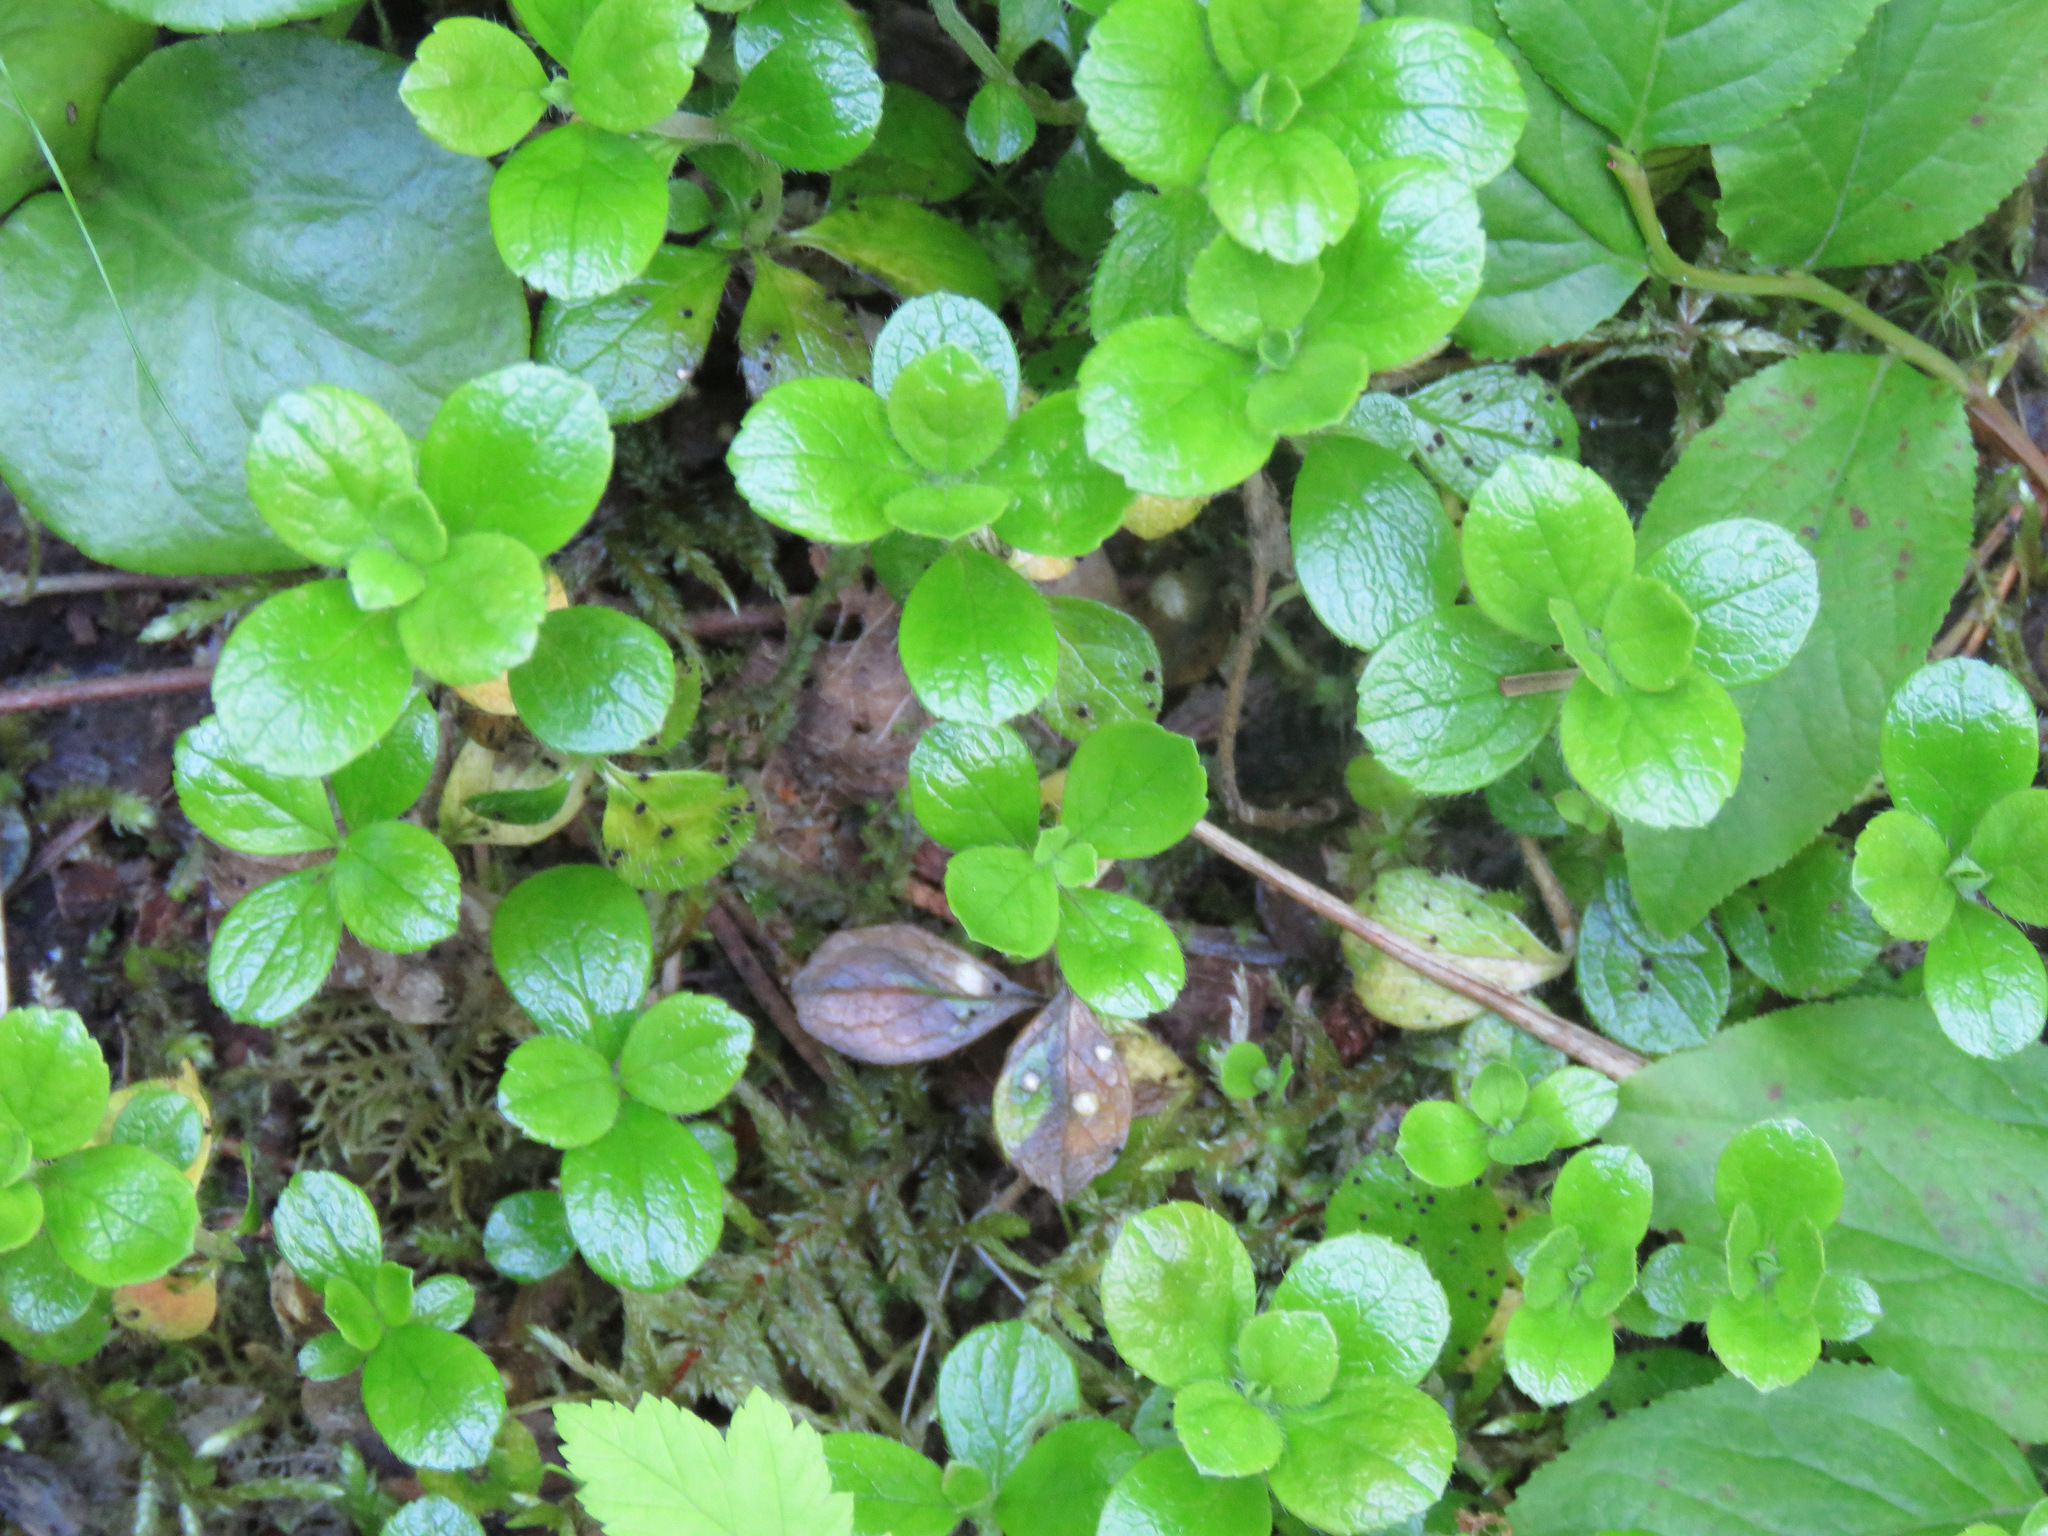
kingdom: Plantae
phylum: Tracheophyta
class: Magnoliopsida
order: Dipsacales
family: Caprifoliaceae
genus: Linnaea
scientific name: Linnaea borealis
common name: Twinflower
